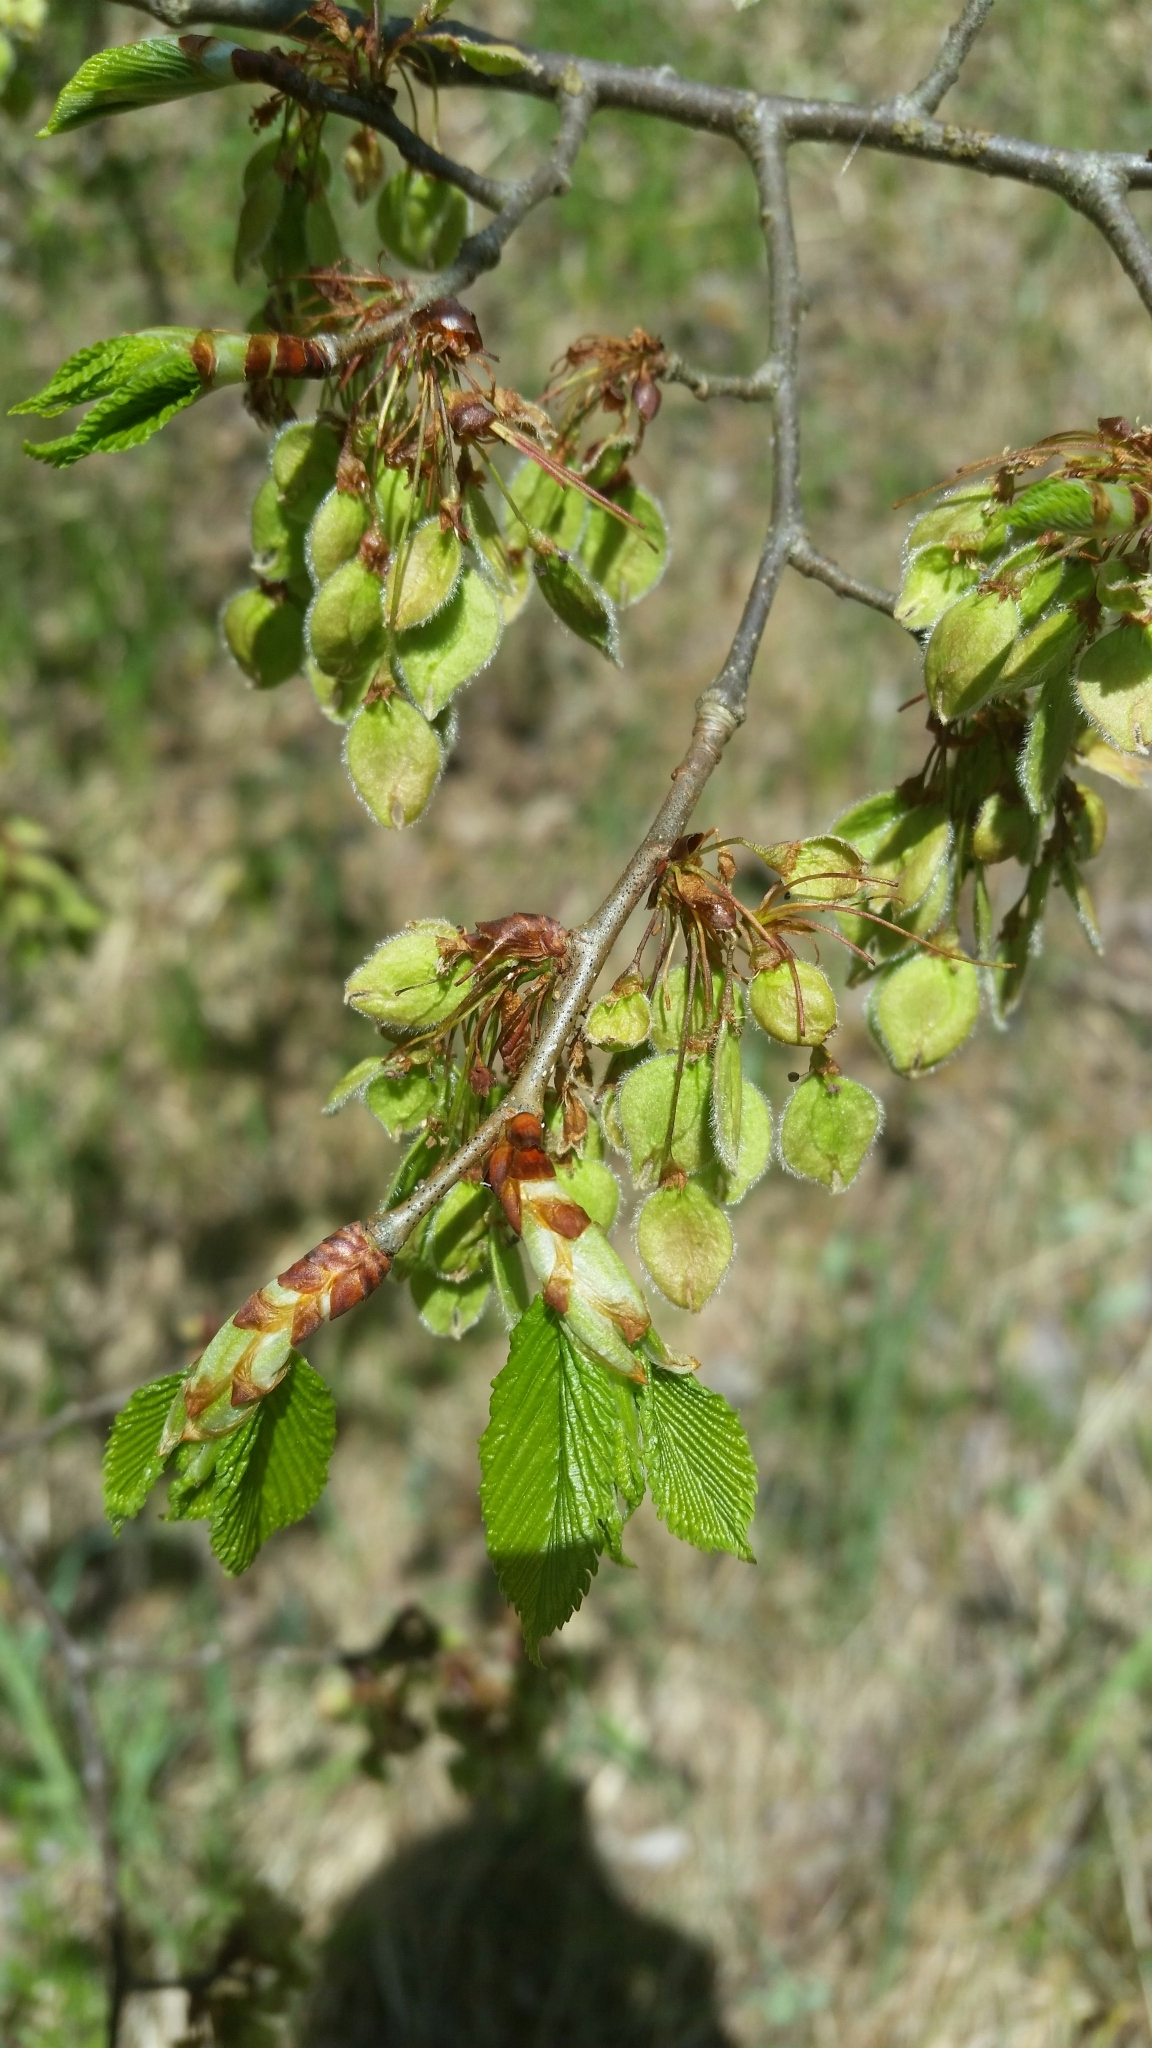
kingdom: Plantae
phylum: Tracheophyta
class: Magnoliopsida
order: Rosales
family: Ulmaceae
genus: Ulmus
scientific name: Ulmus laevis
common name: European white-elm
